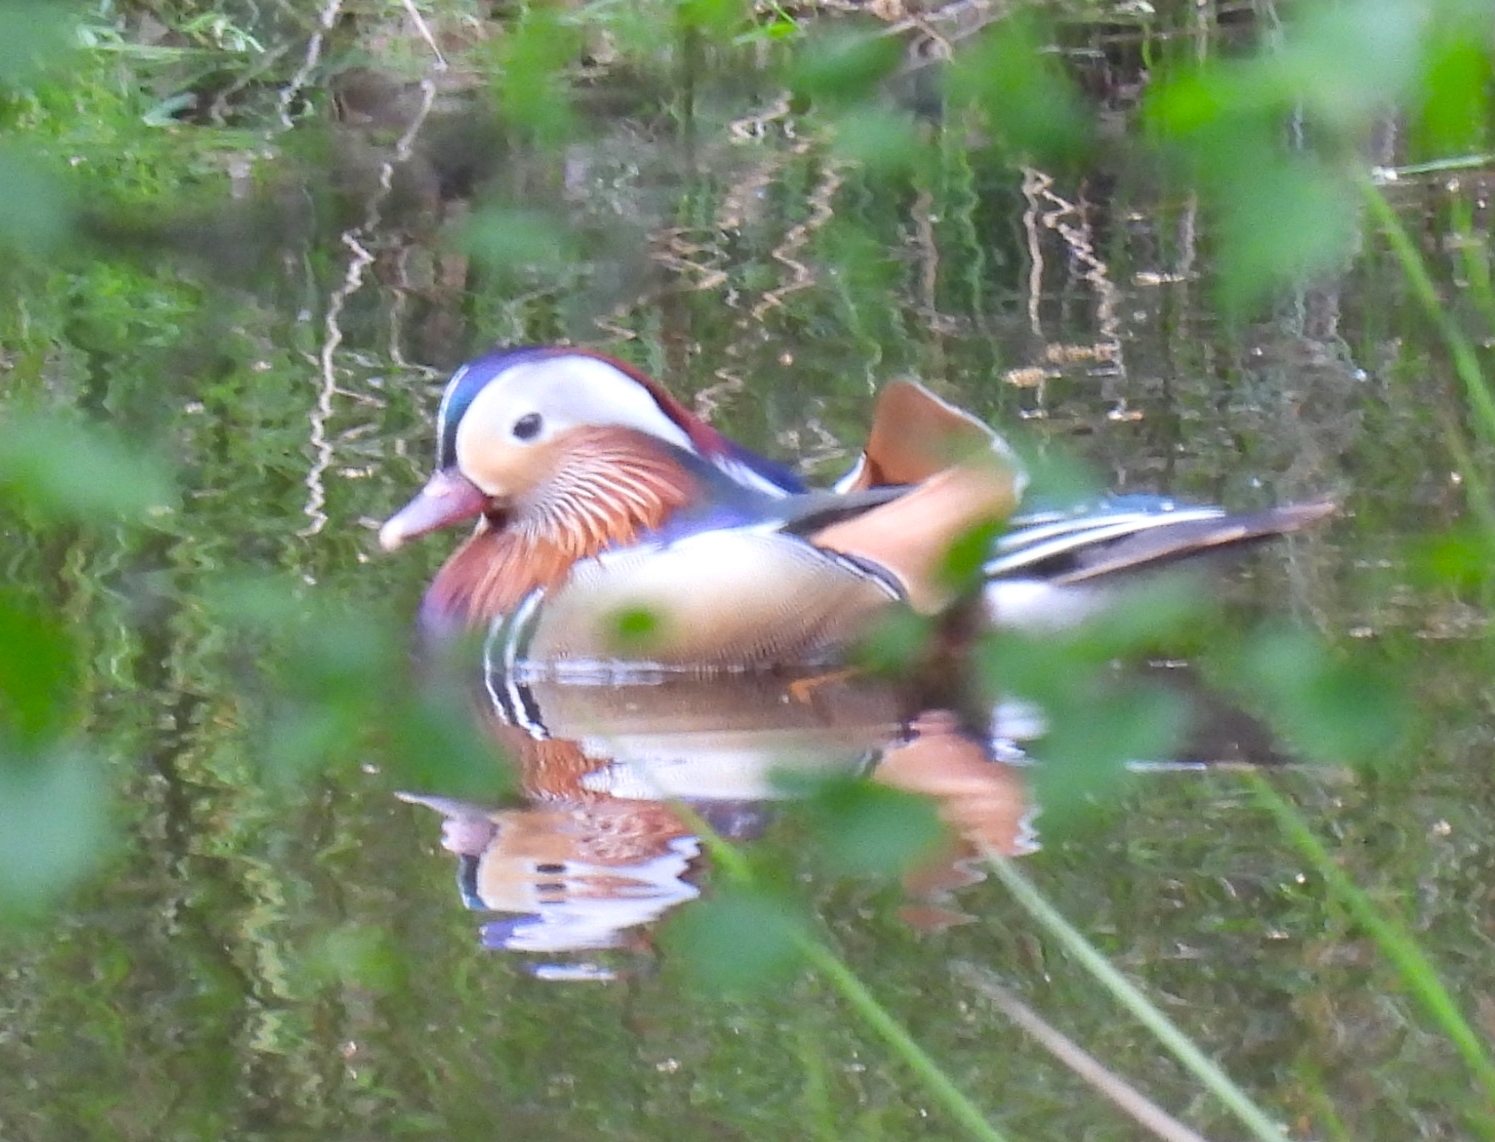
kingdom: Animalia
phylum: Chordata
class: Aves
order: Anseriformes
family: Anatidae
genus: Aix
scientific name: Aix galericulata
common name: Mandarin duck
